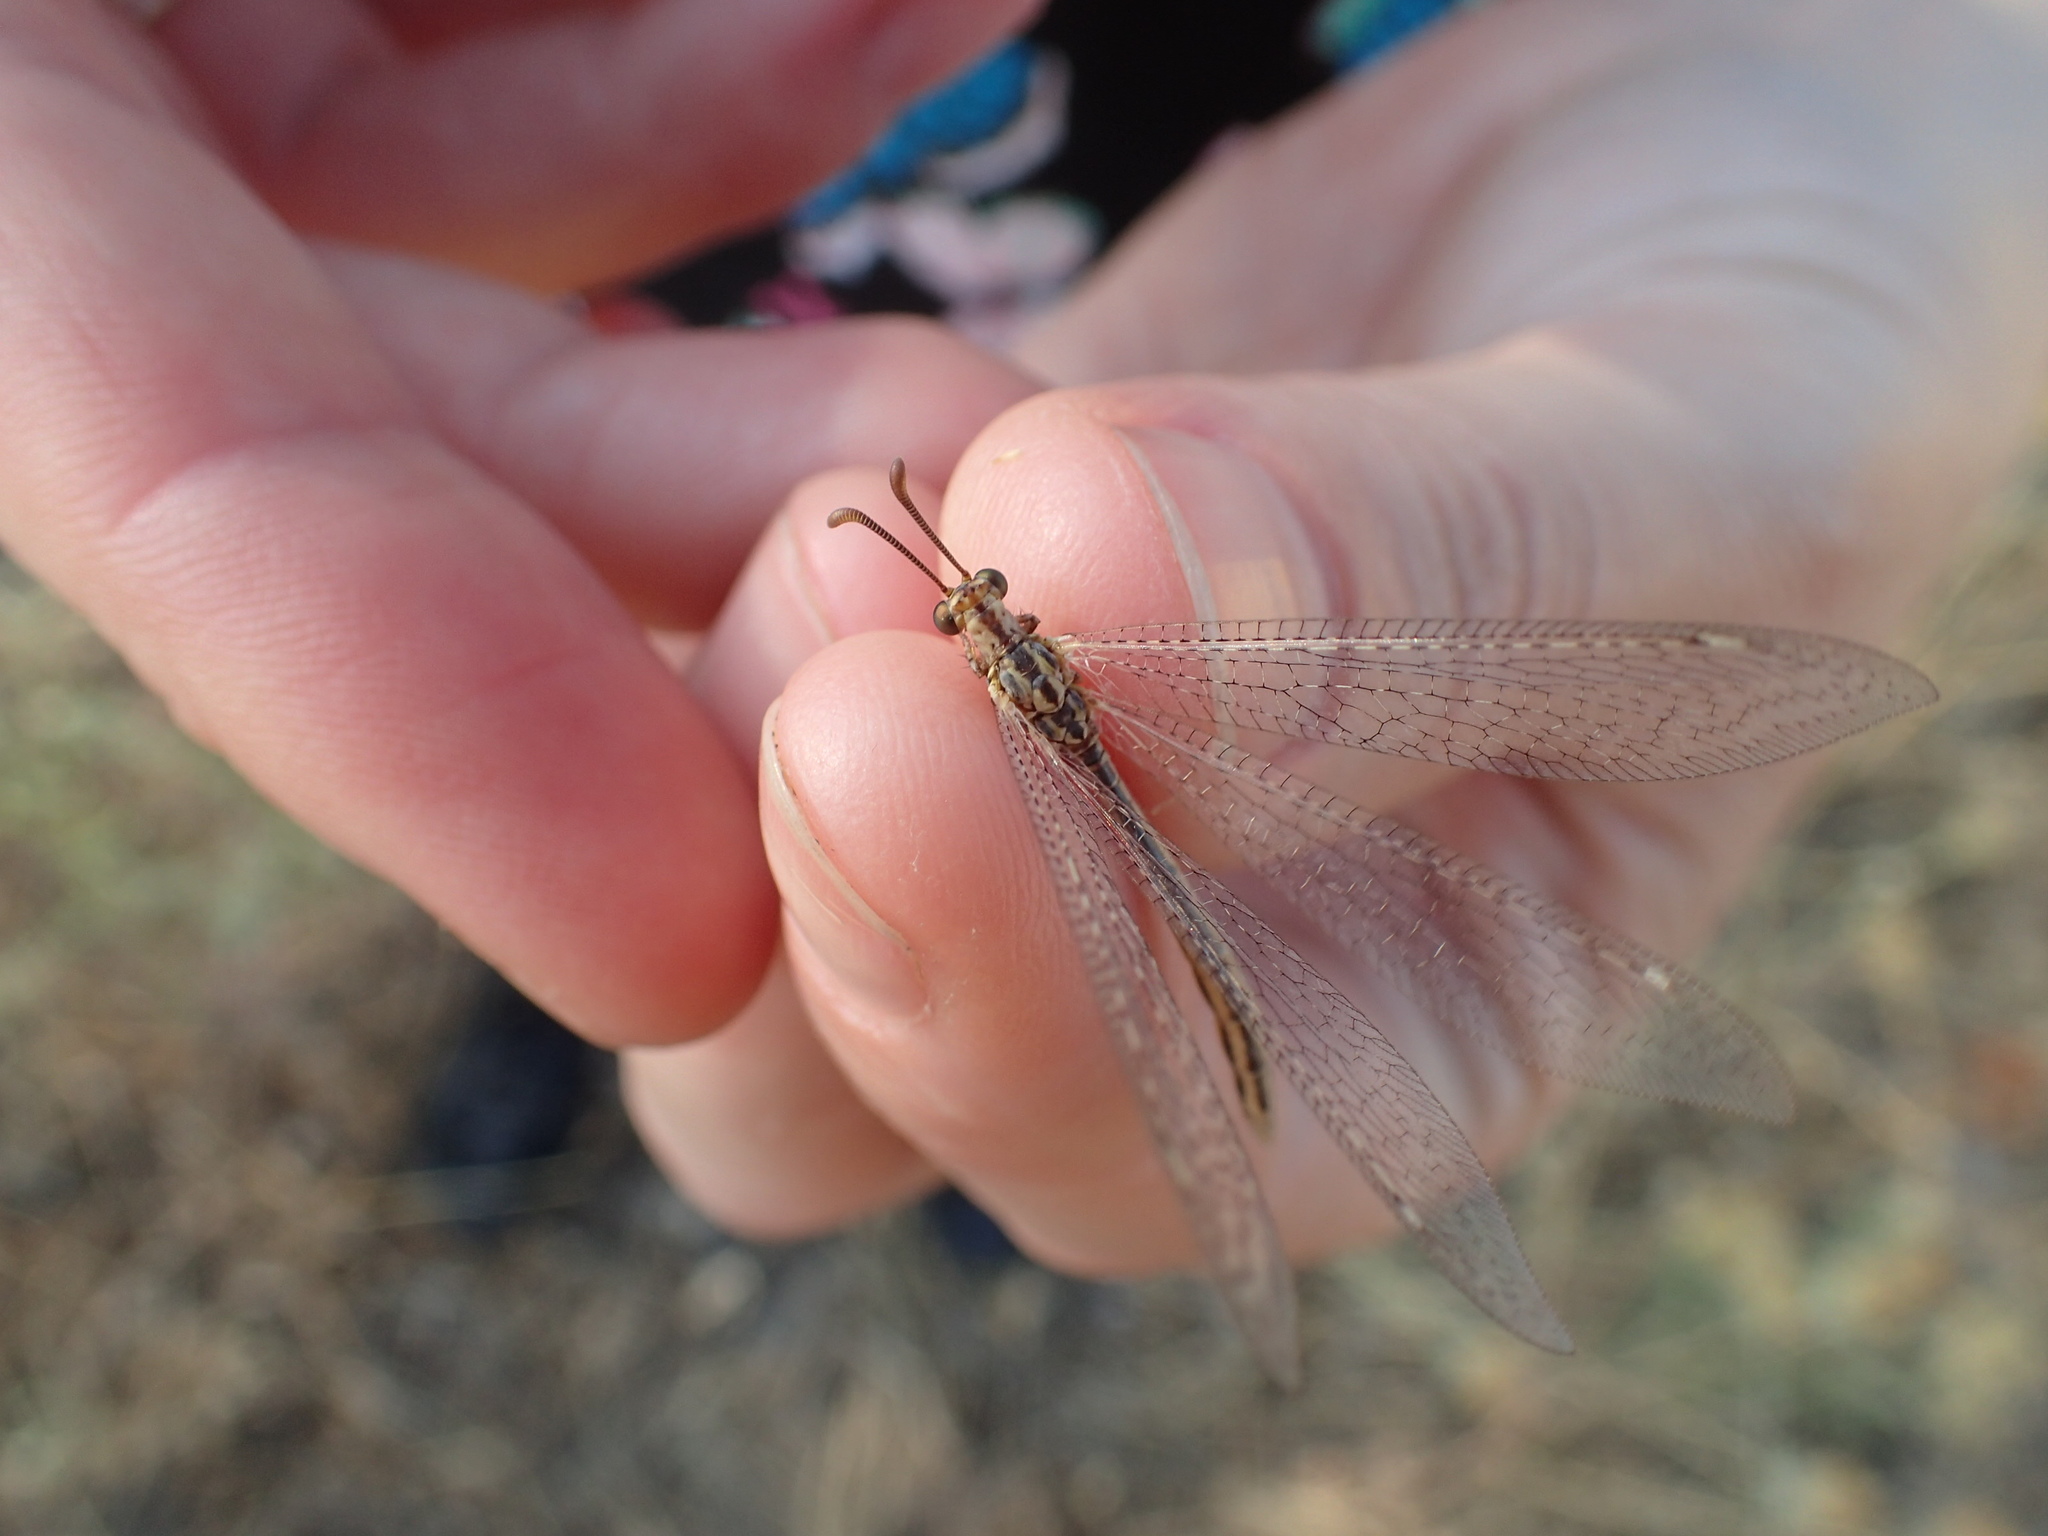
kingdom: Animalia
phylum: Arthropoda
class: Insecta
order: Neuroptera
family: Myrmeleontidae
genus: Macronemurus
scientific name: Macronemurus appendiculatus
